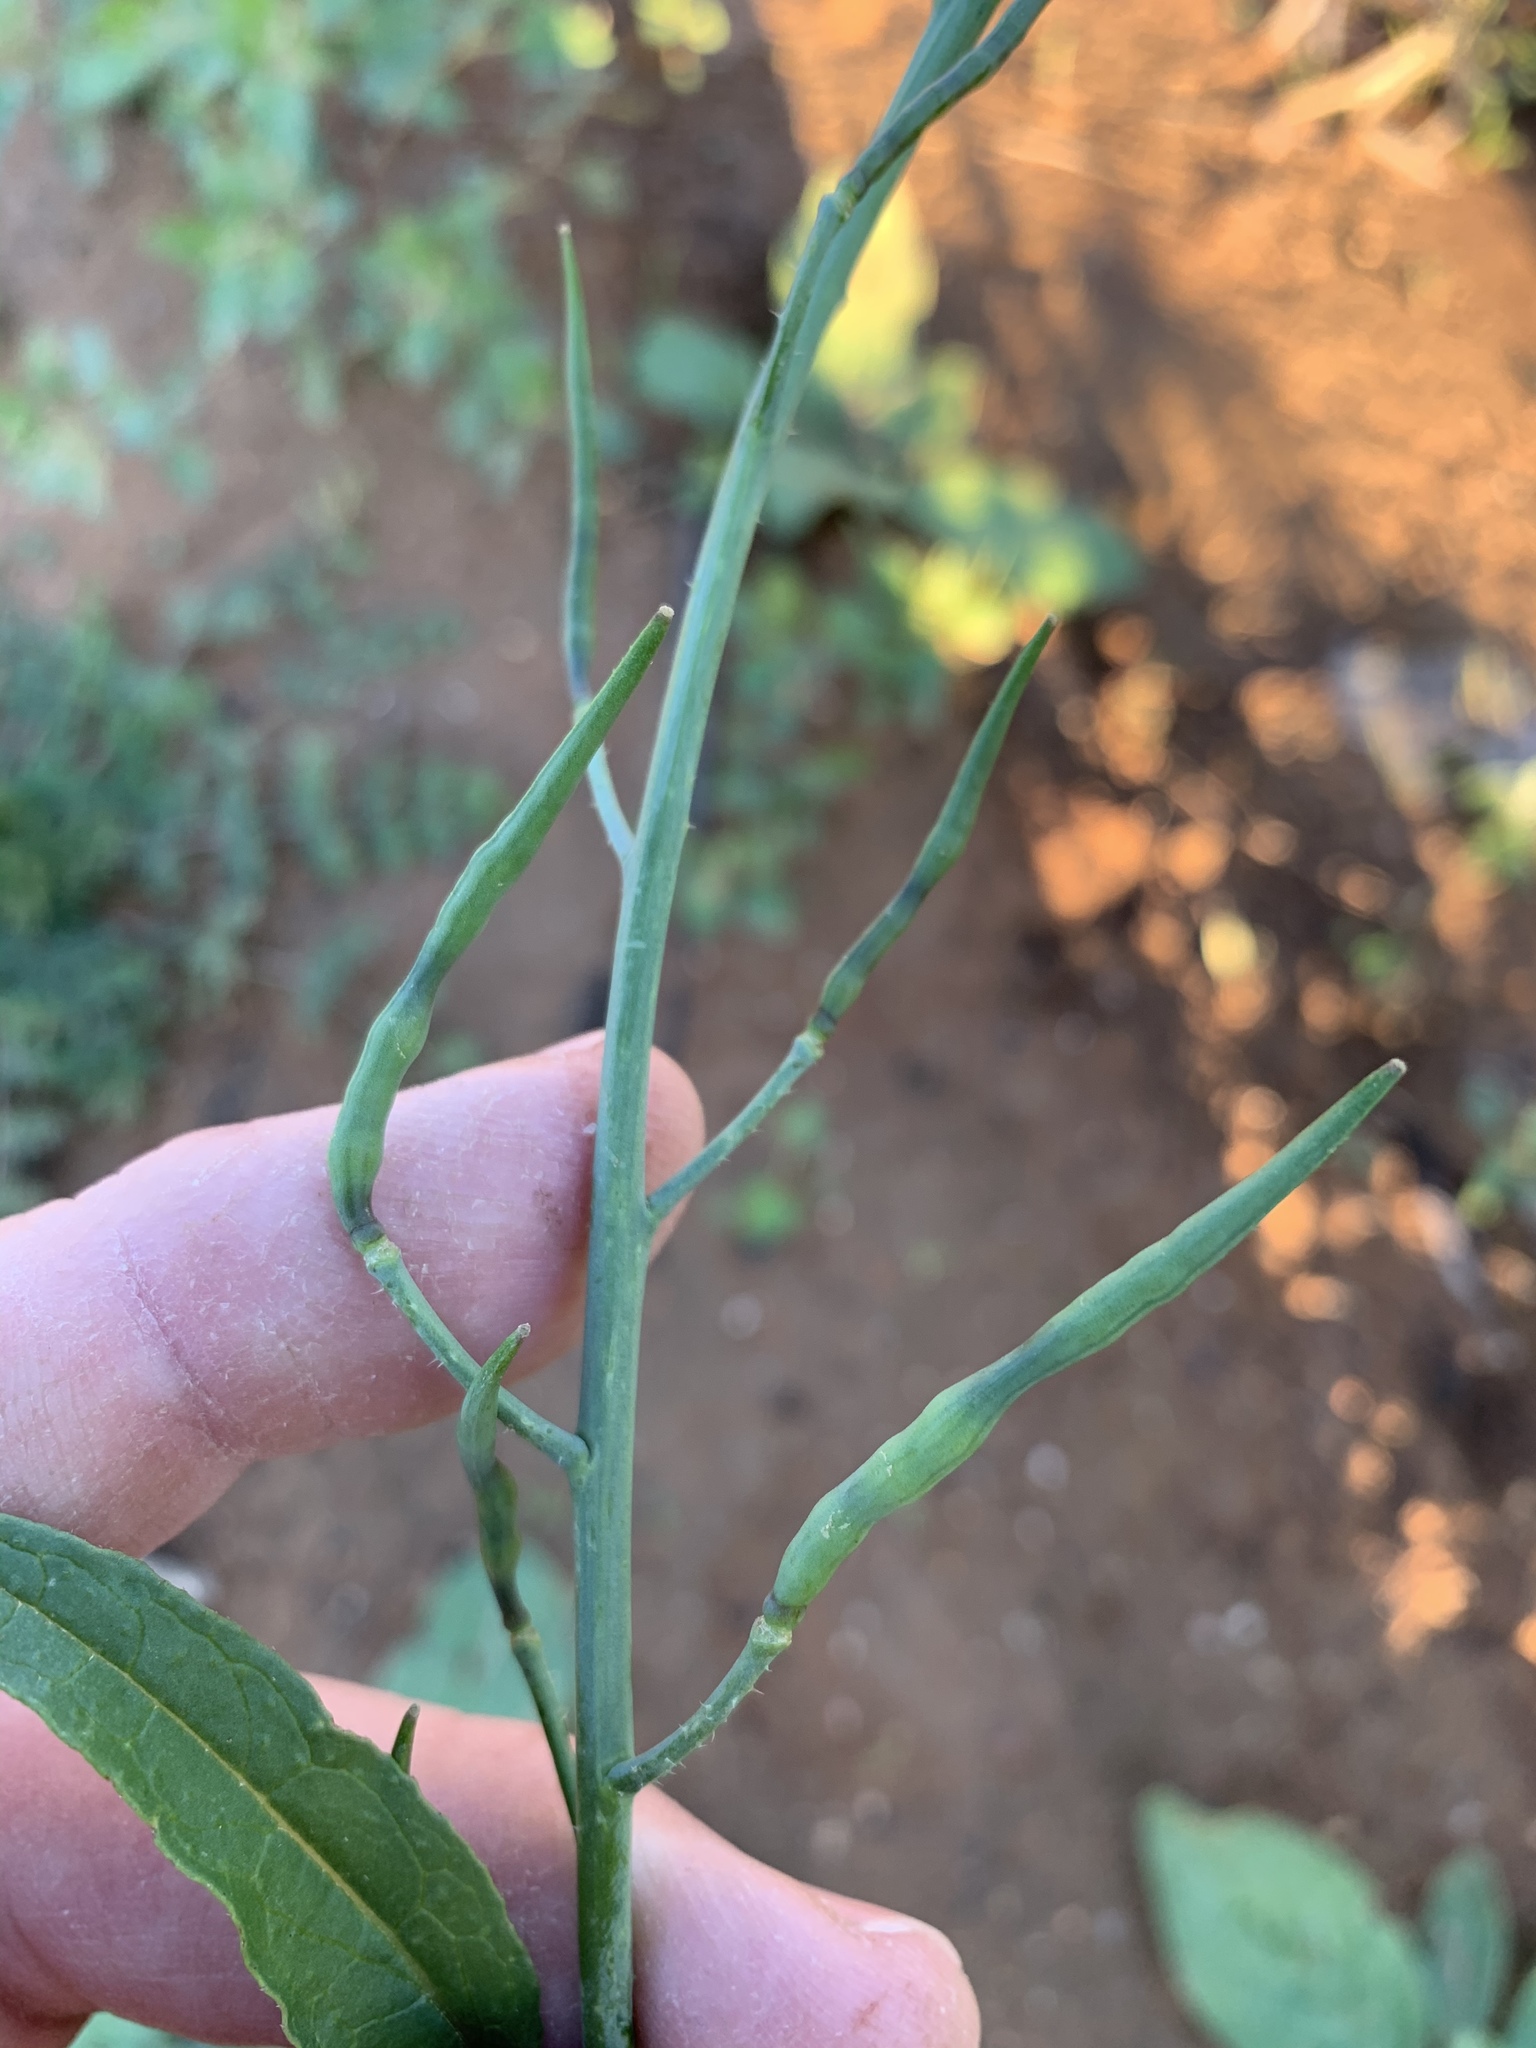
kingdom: Plantae
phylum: Tracheophyta
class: Magnoliopsida
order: Brassicales
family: Brassicaceae
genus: Raphanus
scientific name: Raphanus raphanistrum
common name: Wild radish
